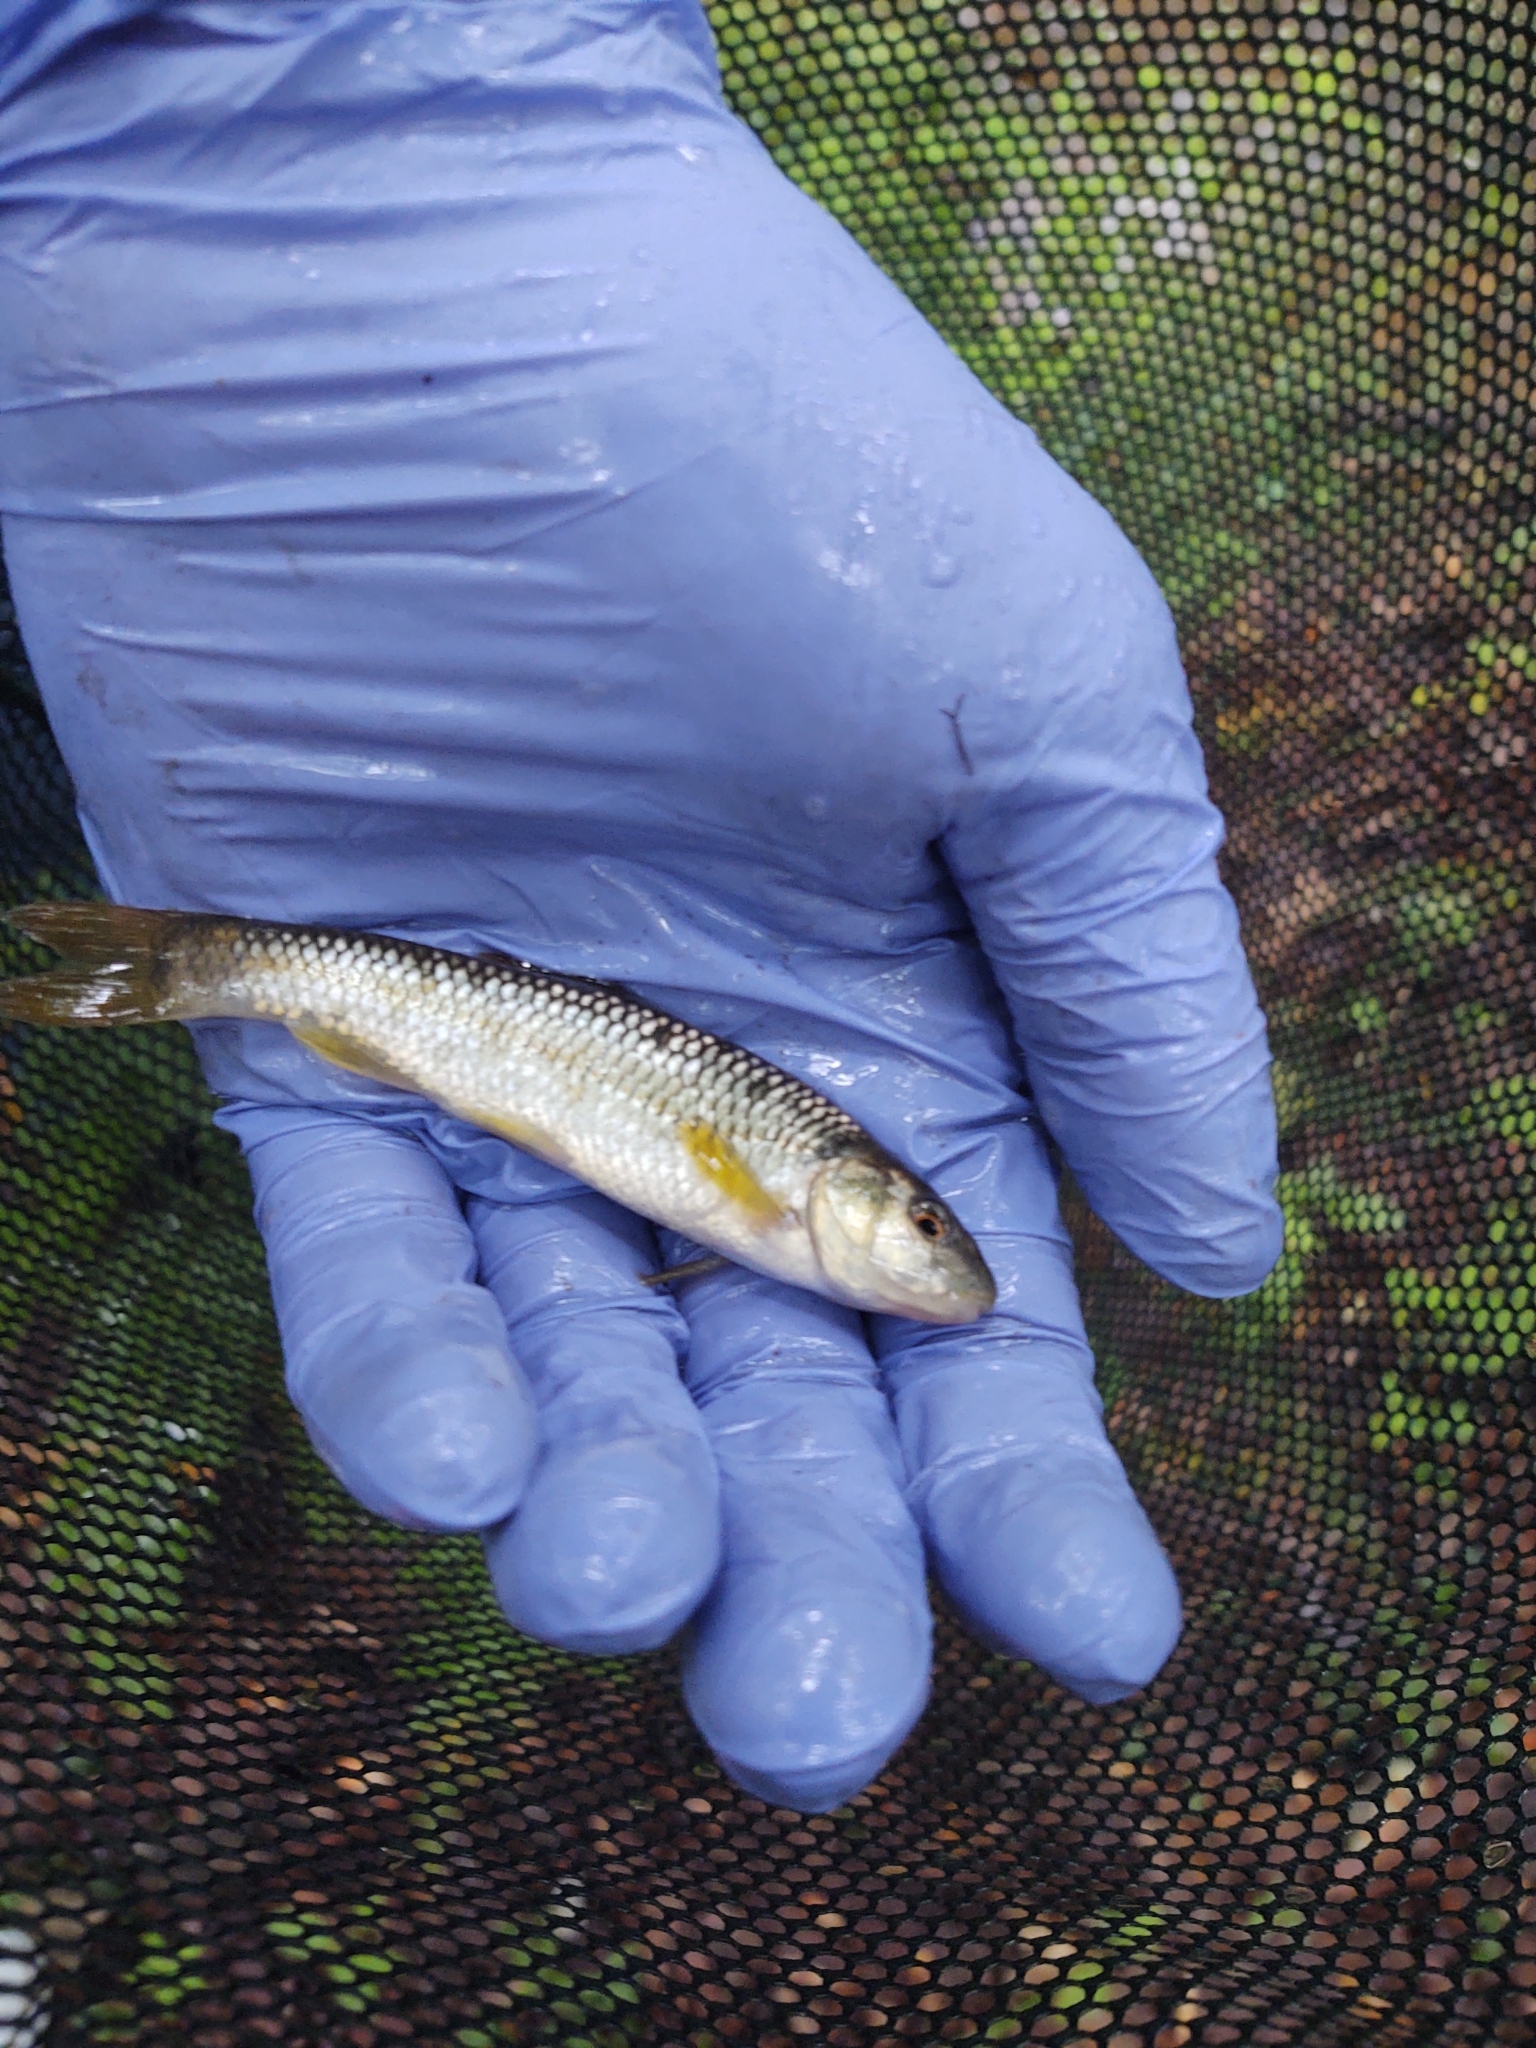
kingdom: Animalia
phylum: Chordata
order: Cypriniformes
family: Cyprinidae
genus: Nocomis
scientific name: Nocomis leptocephalus
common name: Bluehead chub
